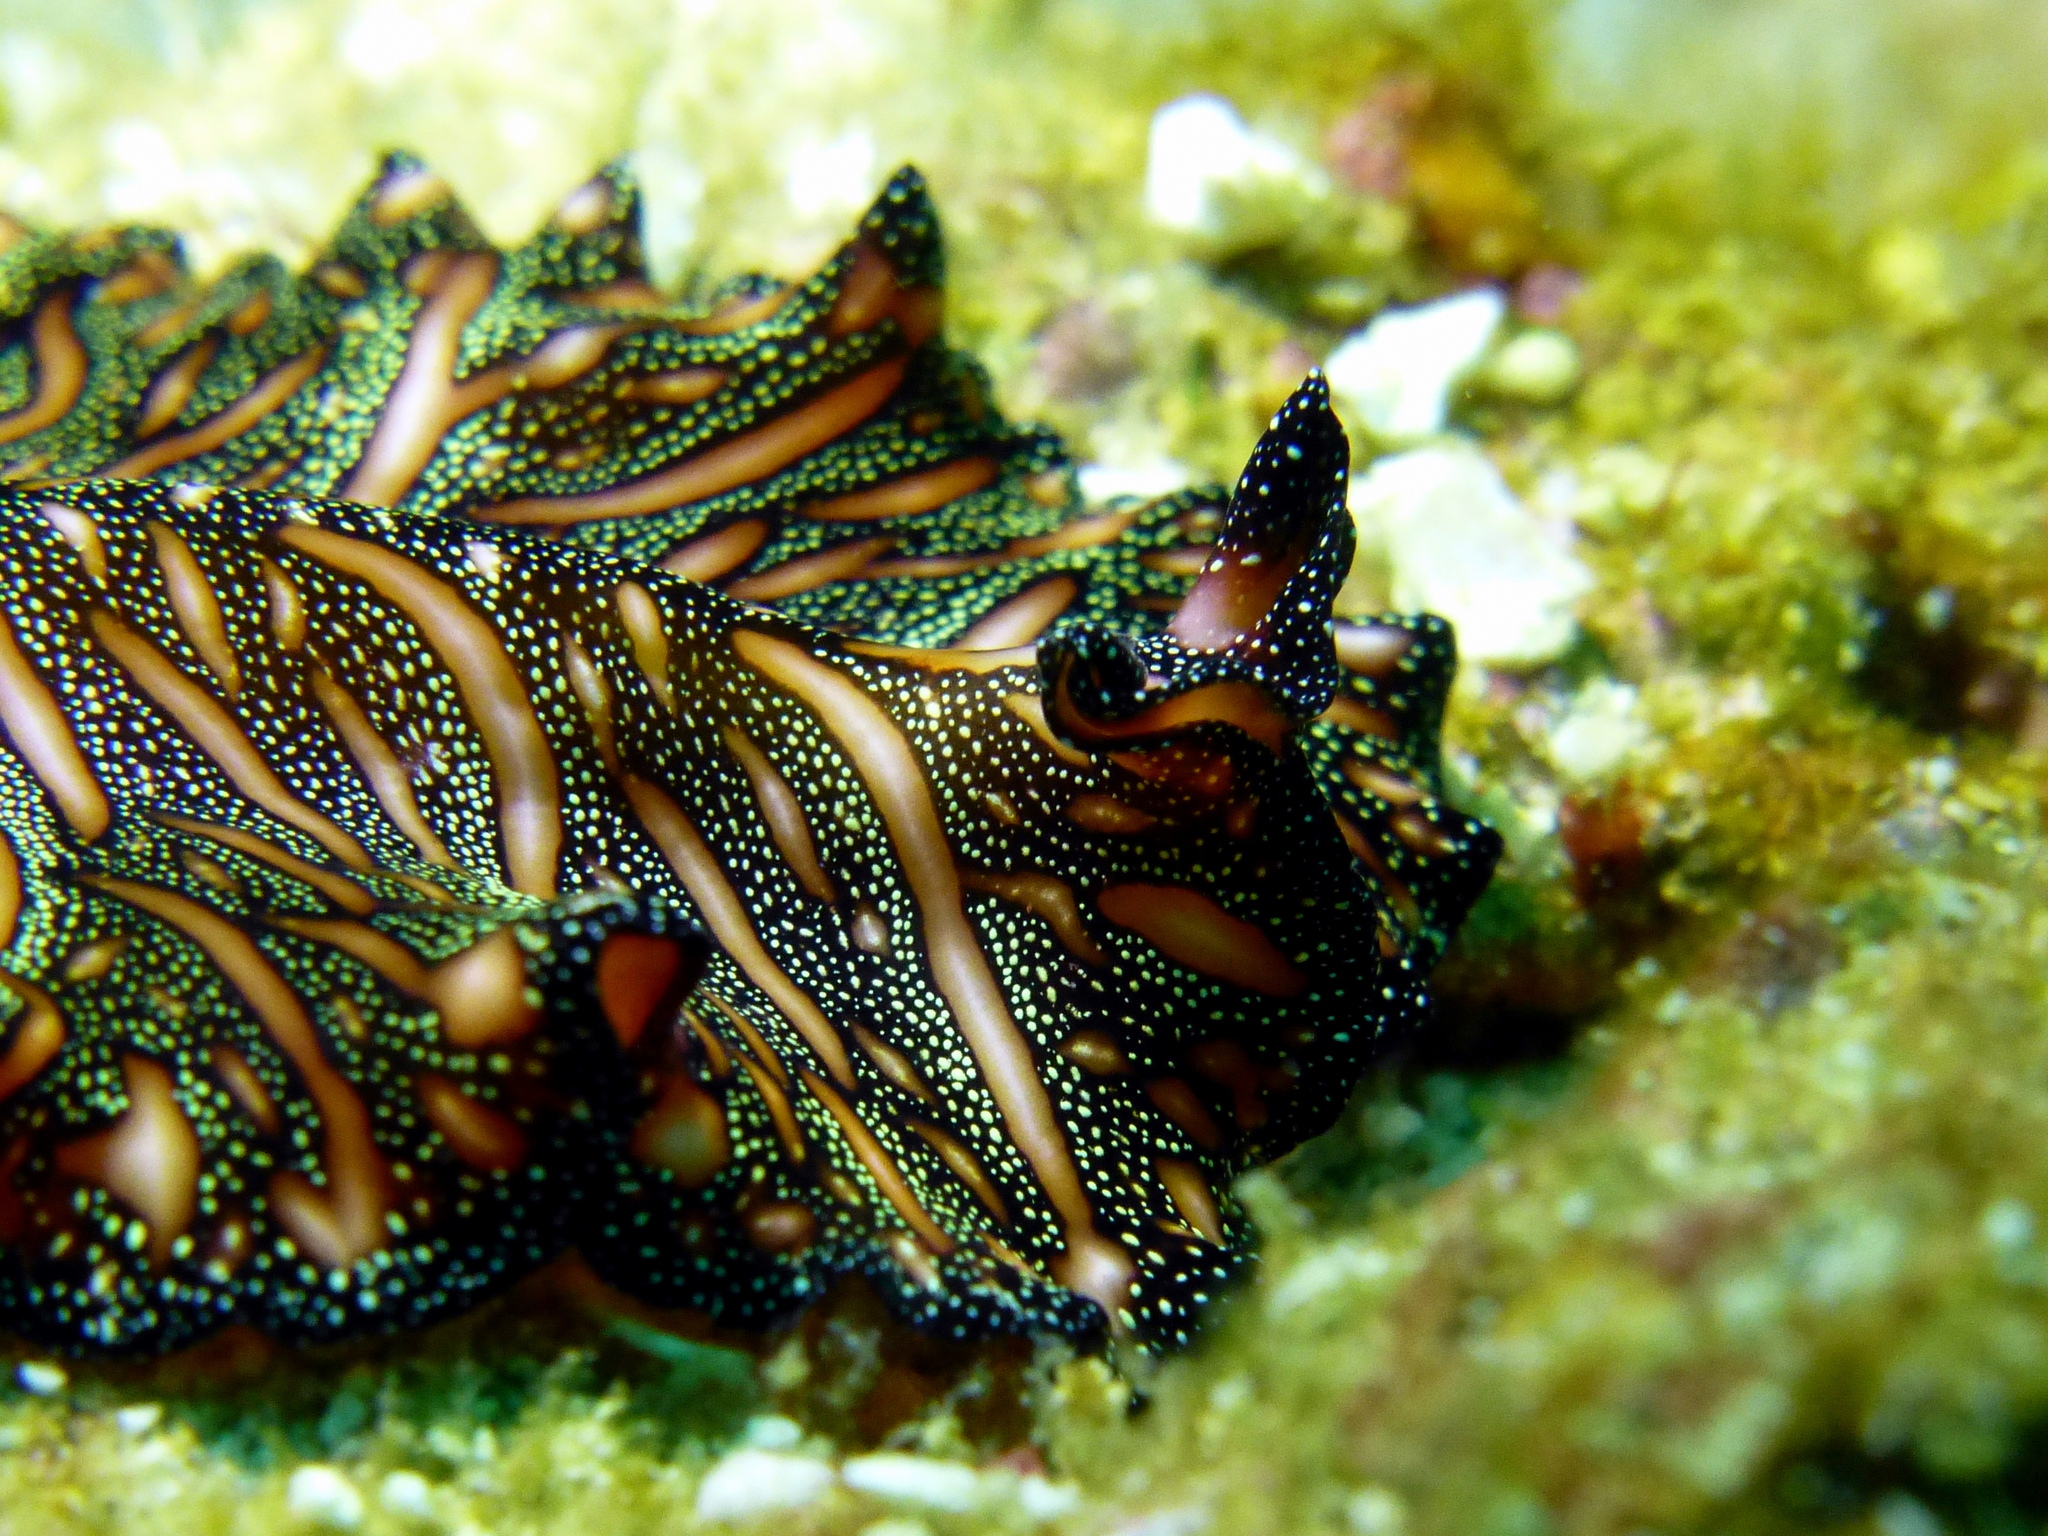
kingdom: Animalia
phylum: Platyhelminthes
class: Turbellaria
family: Pseudocerotidae
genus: Pseudobiceros
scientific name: Pseudobiceros bedfordi
